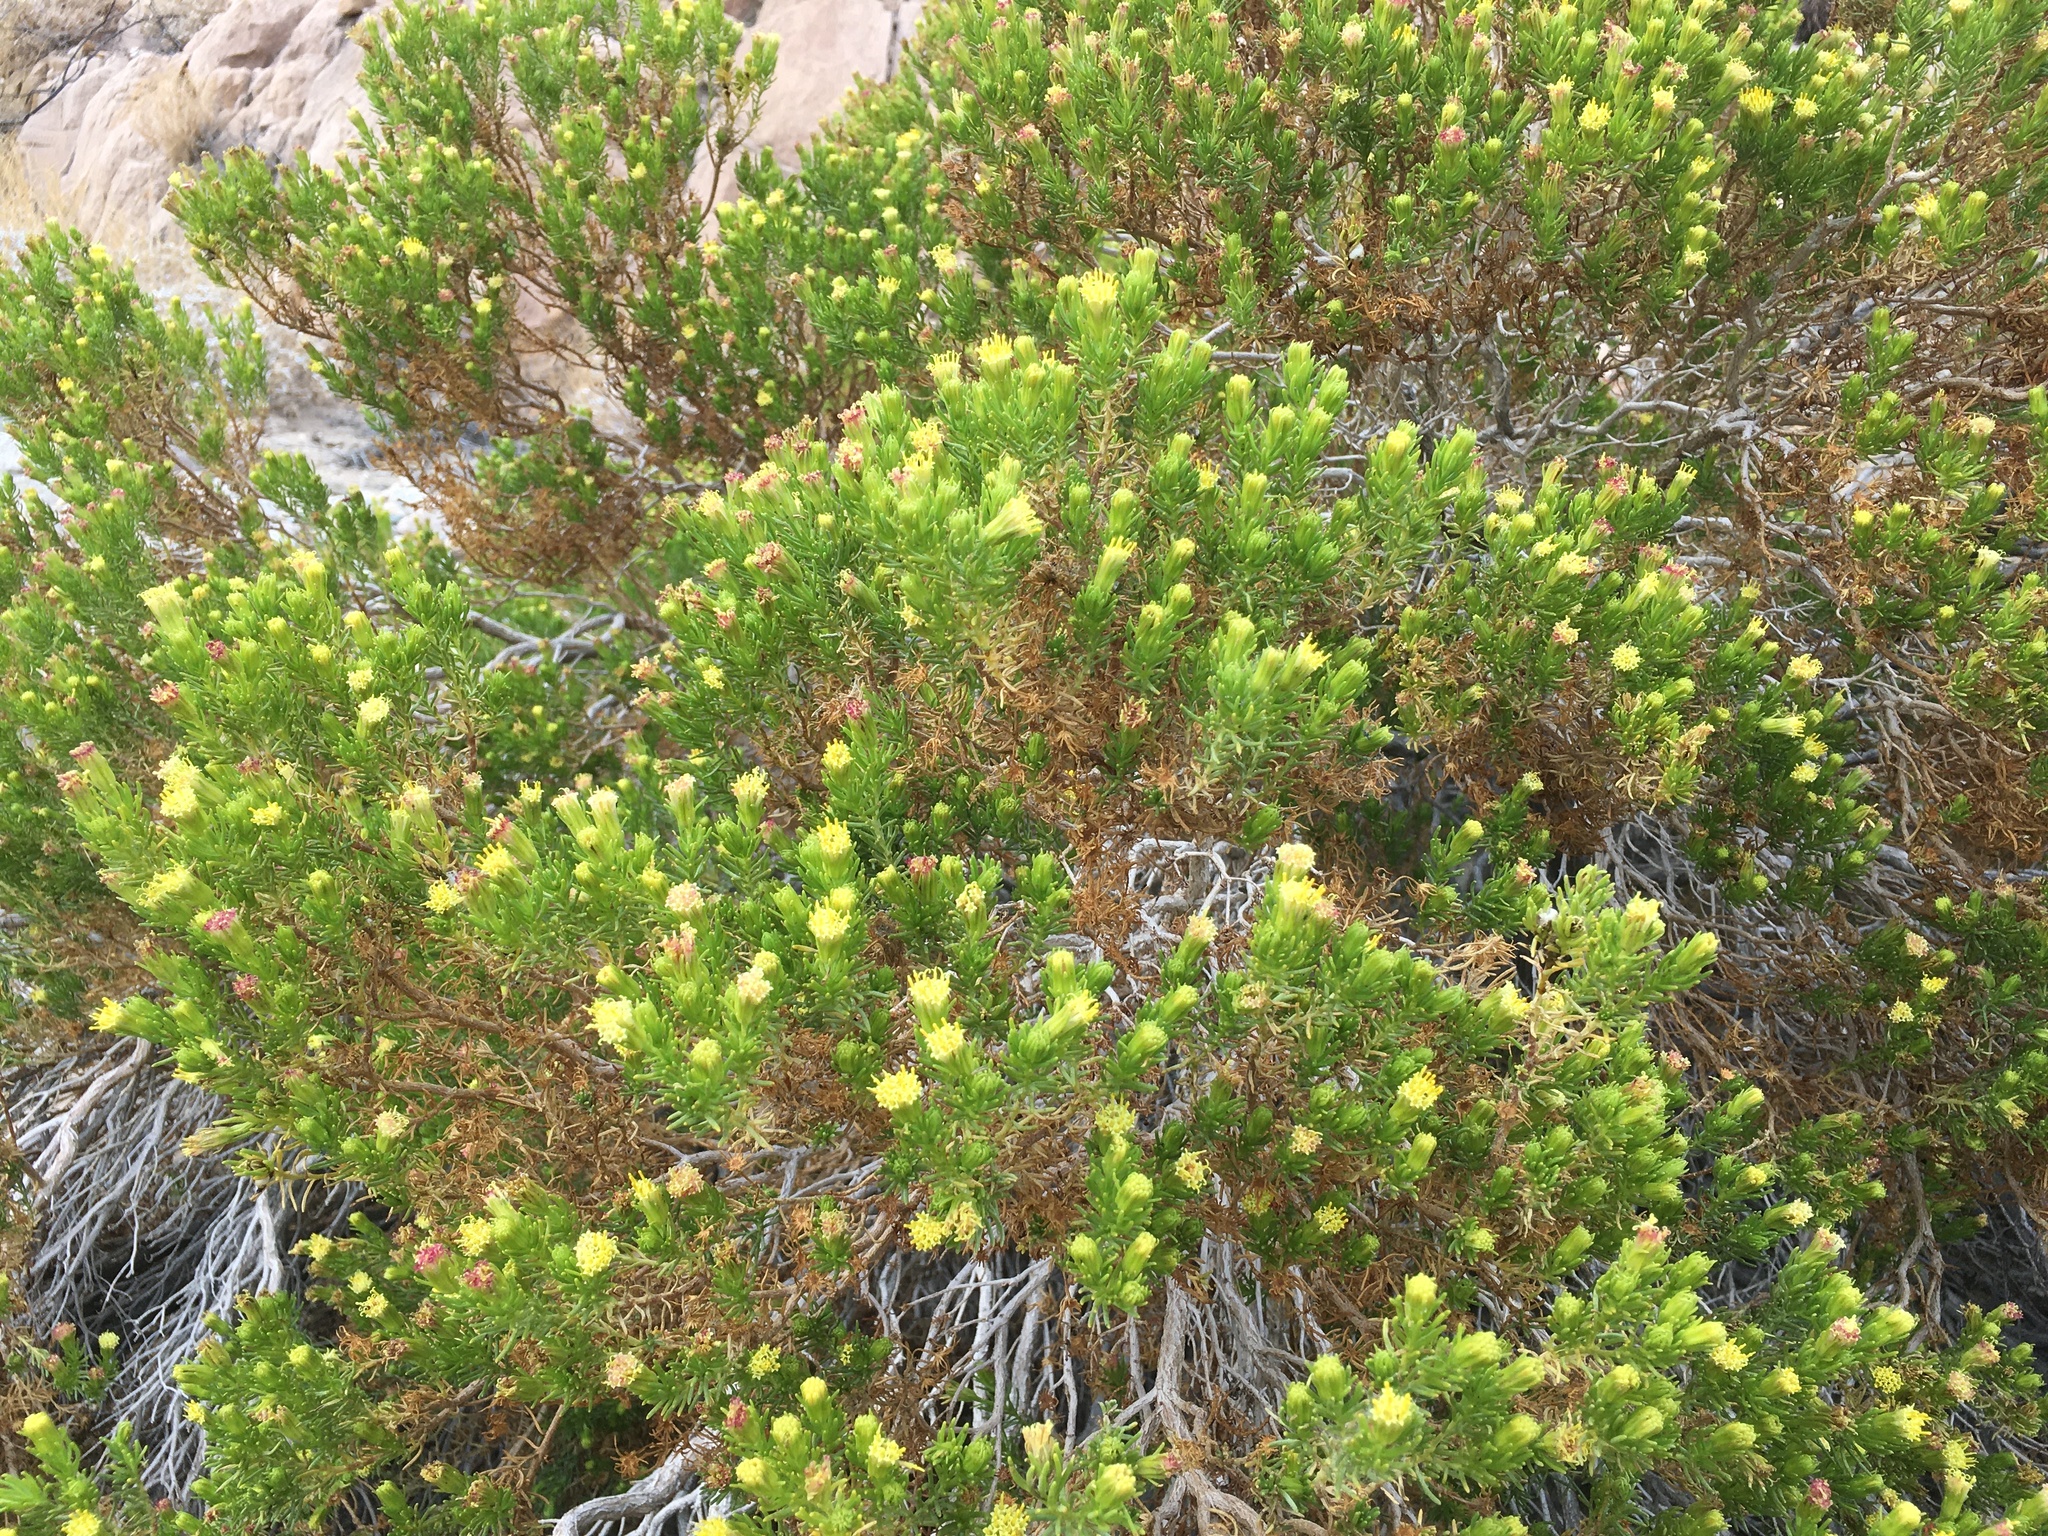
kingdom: Plantae
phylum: Tracheophyta
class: Magnoliopsida
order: Asterales
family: Asteraceae
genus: Peucephyllum
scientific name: Peucephyllum schottii
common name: Pygmy-cedar
